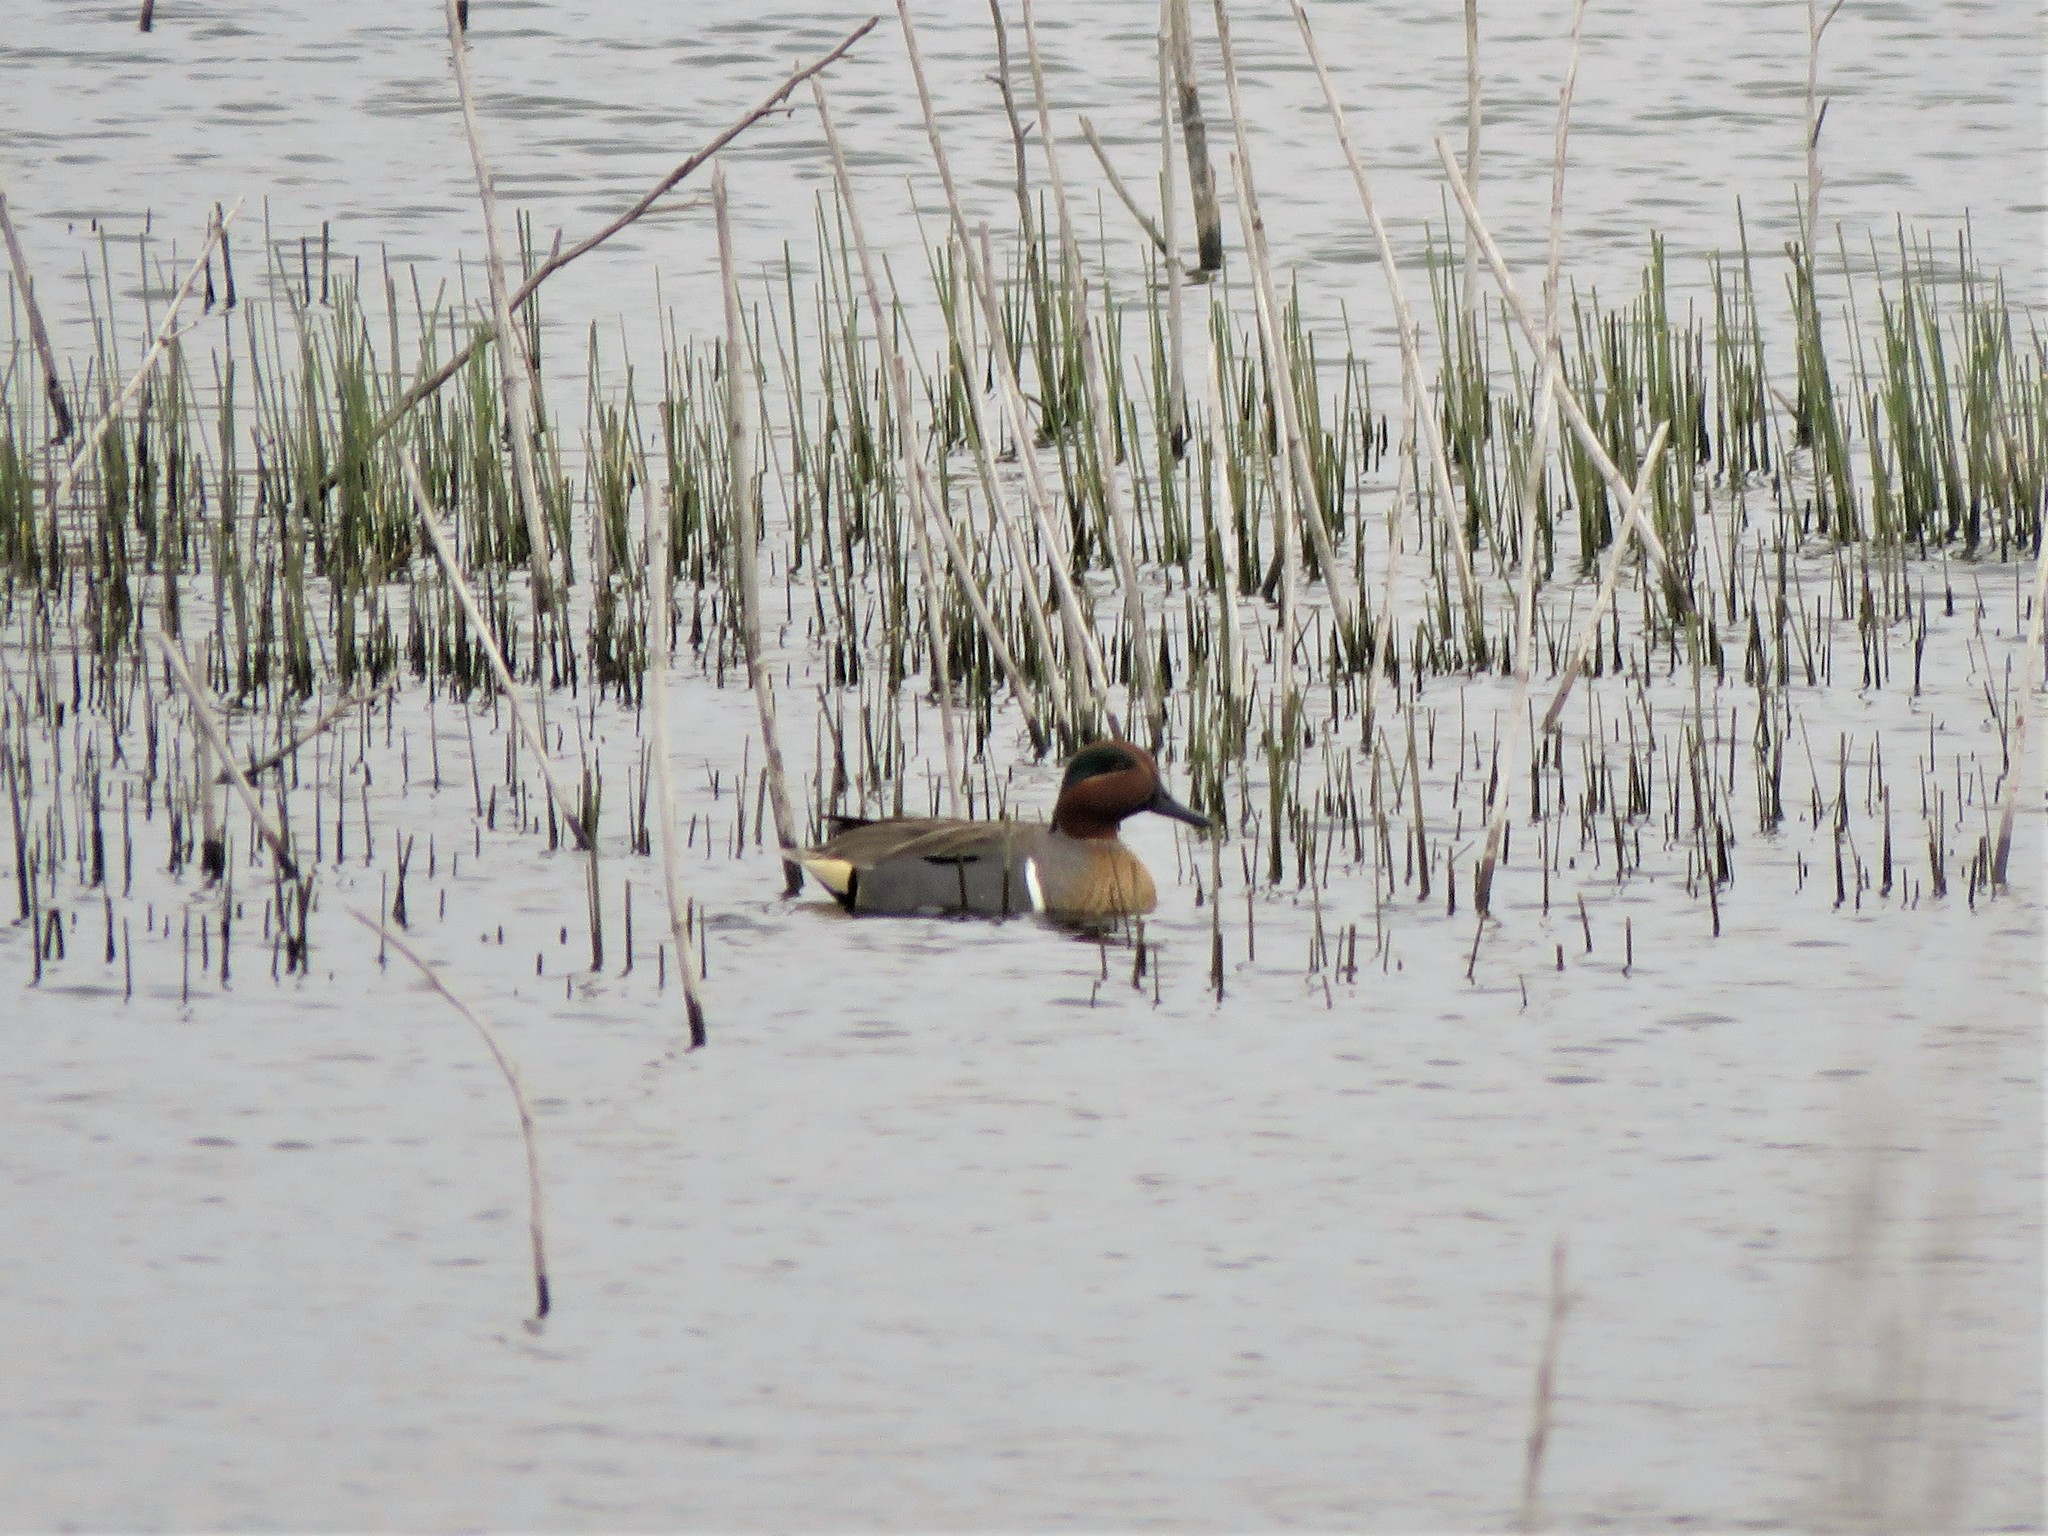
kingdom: Animalia
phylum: Chordata
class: Aves
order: Anseriformes
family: Anatidae
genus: Anas
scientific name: Anas crecca
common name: Eurasian teal
